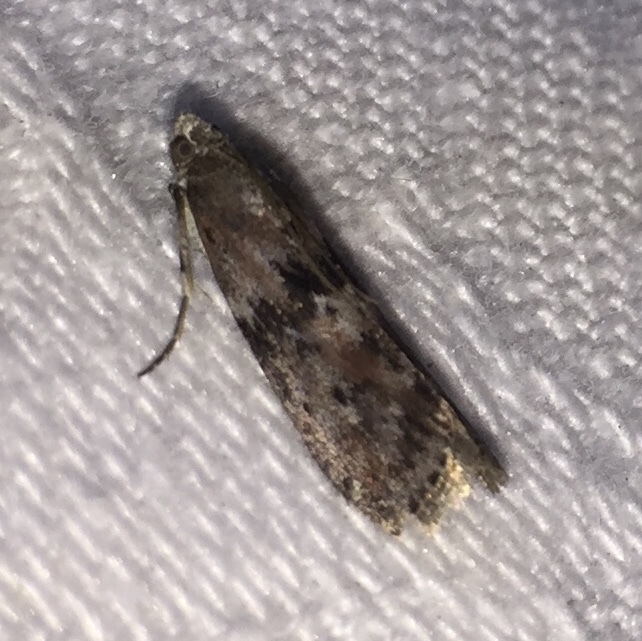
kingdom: Animalia
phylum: Arthropoda
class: Insecta
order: Lepidoptera
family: Pyralidae
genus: Sciota
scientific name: Sciota virgatella
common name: Black-spotted leafroller moth
